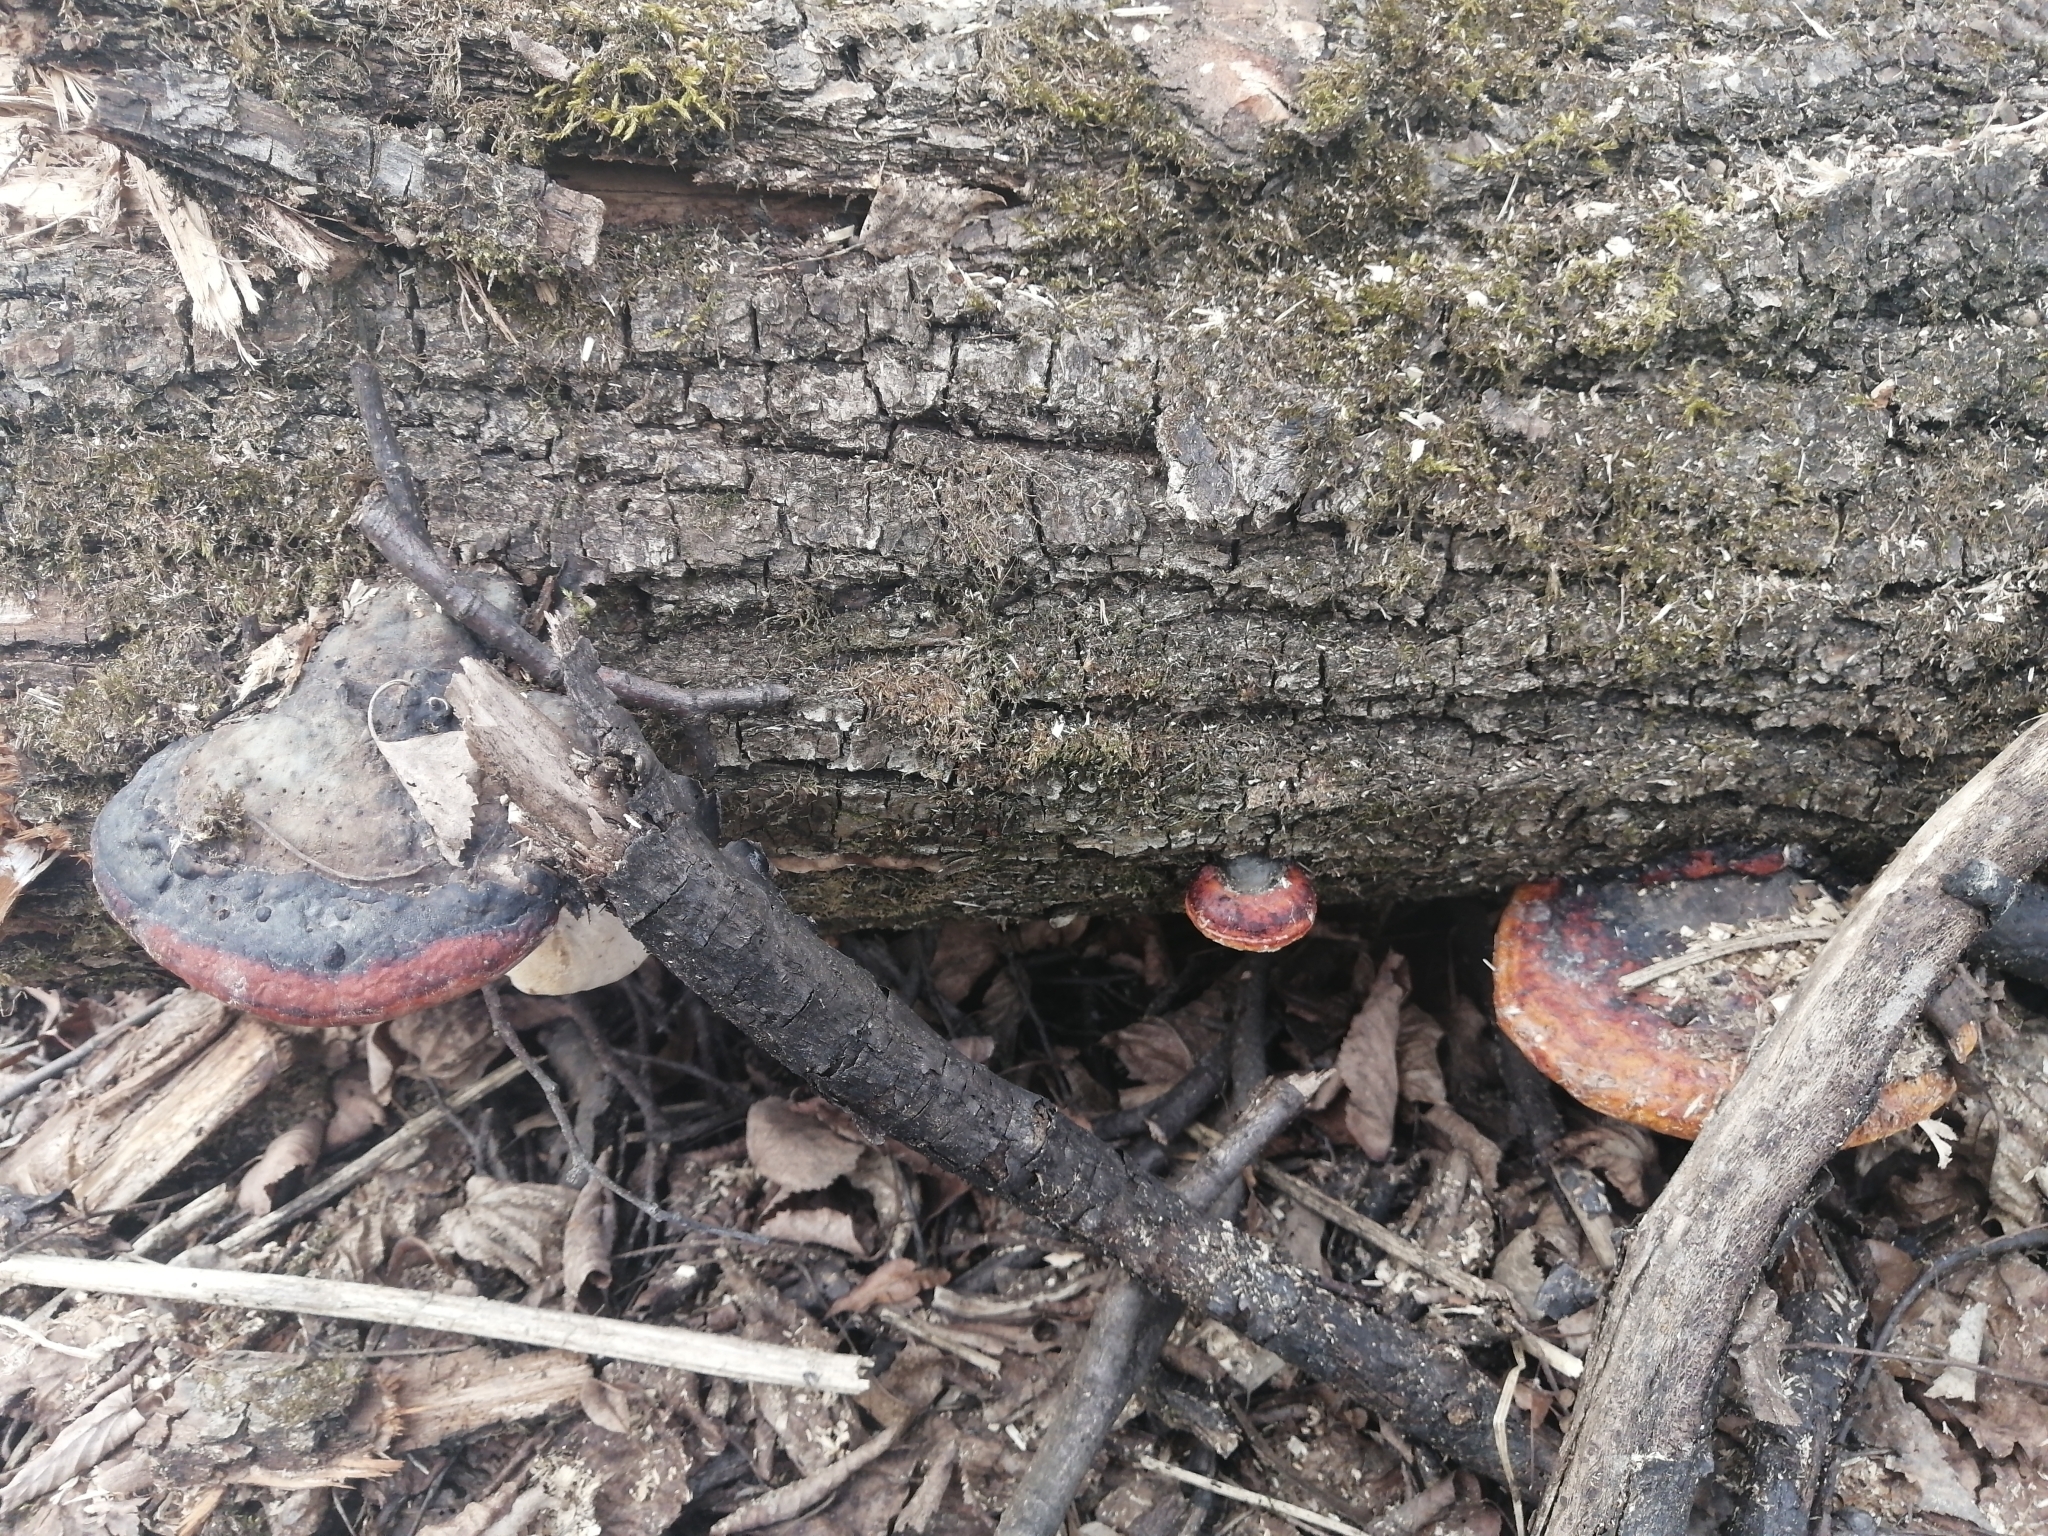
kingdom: Fungi
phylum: Basidiomycota
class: Agaricomycetes
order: Polyporales
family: Fomitopsidaceae
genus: Fomitopsis
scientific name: Fomitopsis pinicola
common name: Red-belted bracket
